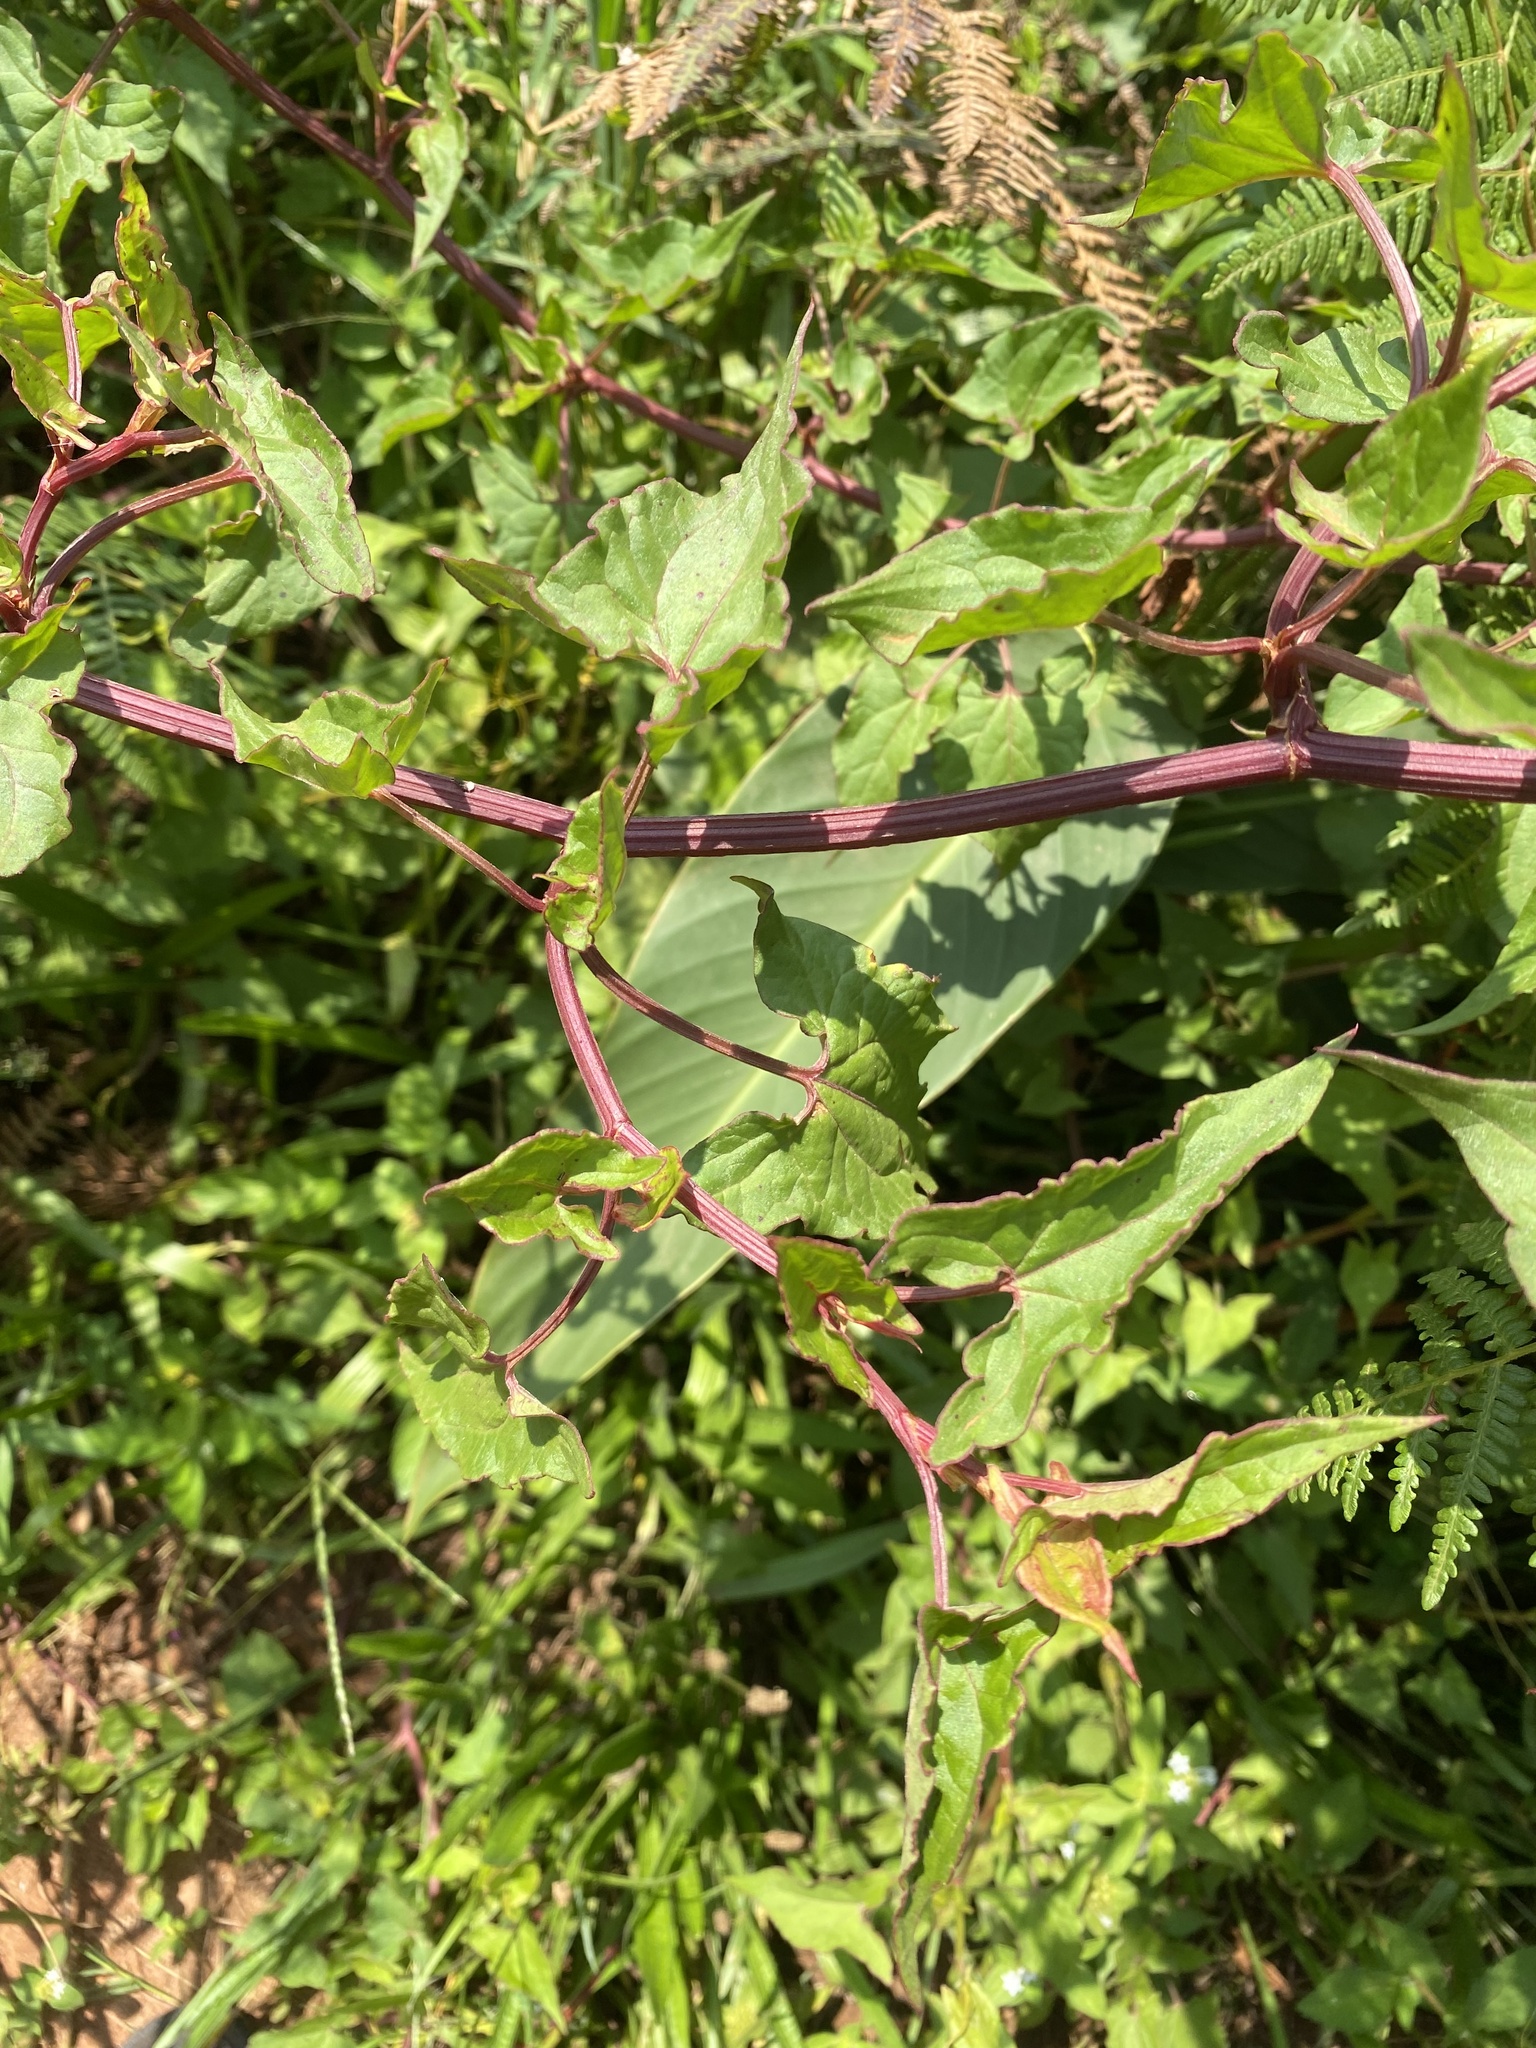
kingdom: Plantae
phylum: Tracheophyta
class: Magnoliopsida
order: Caryophyllales
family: Polygonaceae
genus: Rumex
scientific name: Rumex sagittatus
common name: Climbing dock
